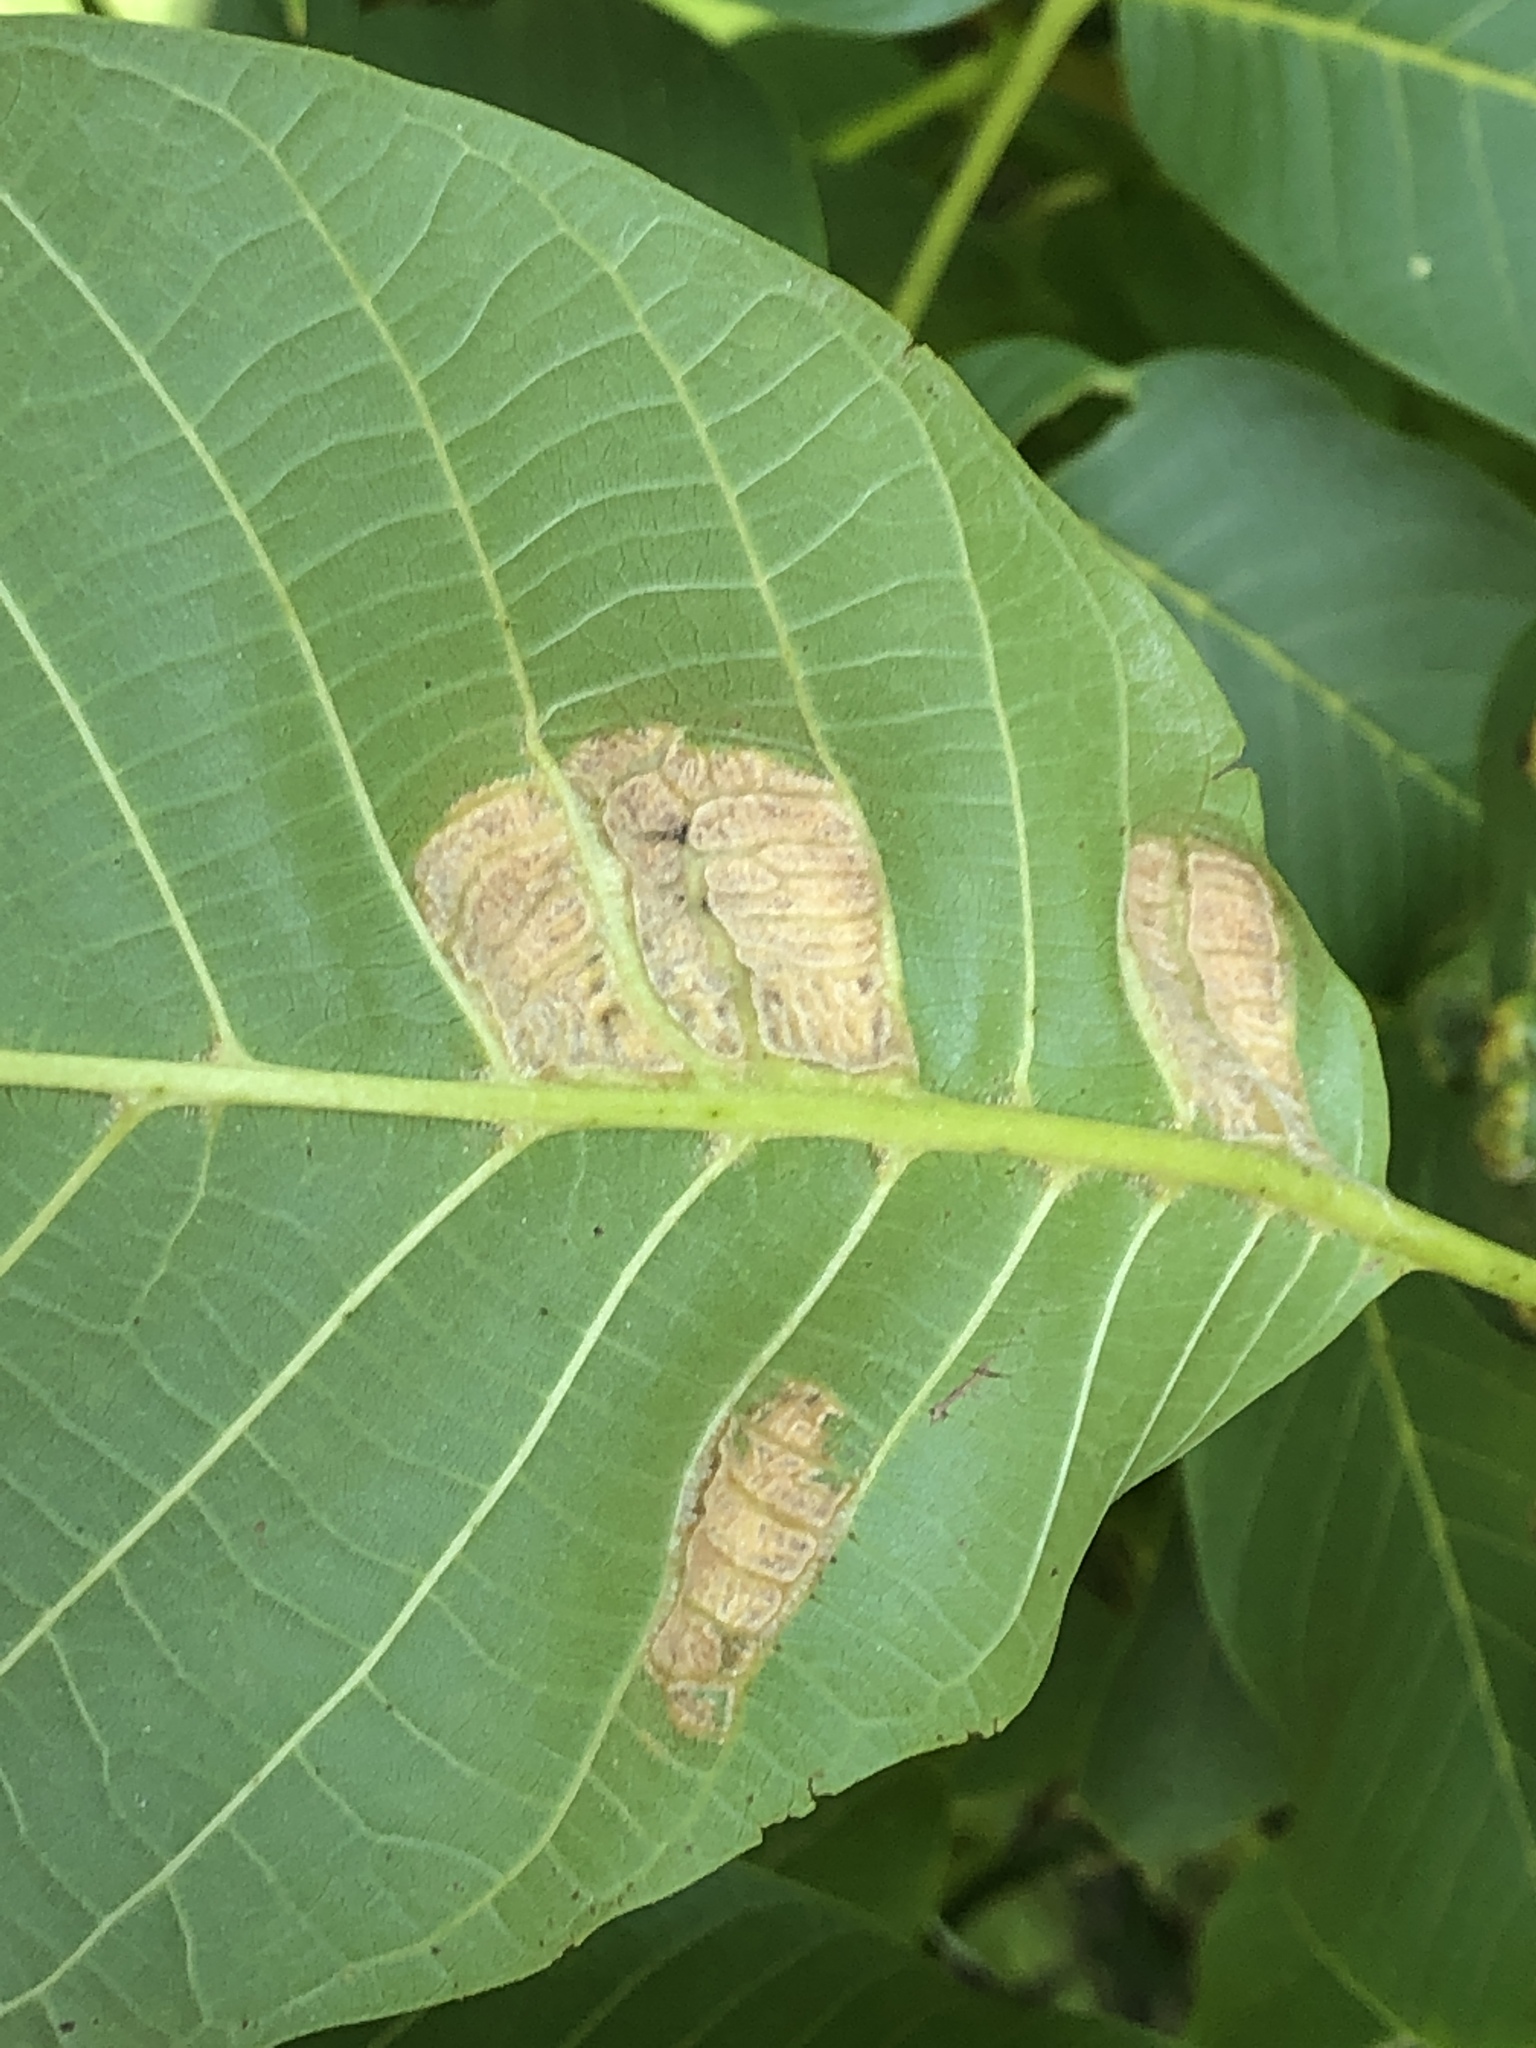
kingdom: Animalia
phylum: Arthropoda
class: Arachnida
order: Trombidiformes
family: Eriophyidae
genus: Aceria
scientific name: Aceria erinea
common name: Persian walnut erineum mite
